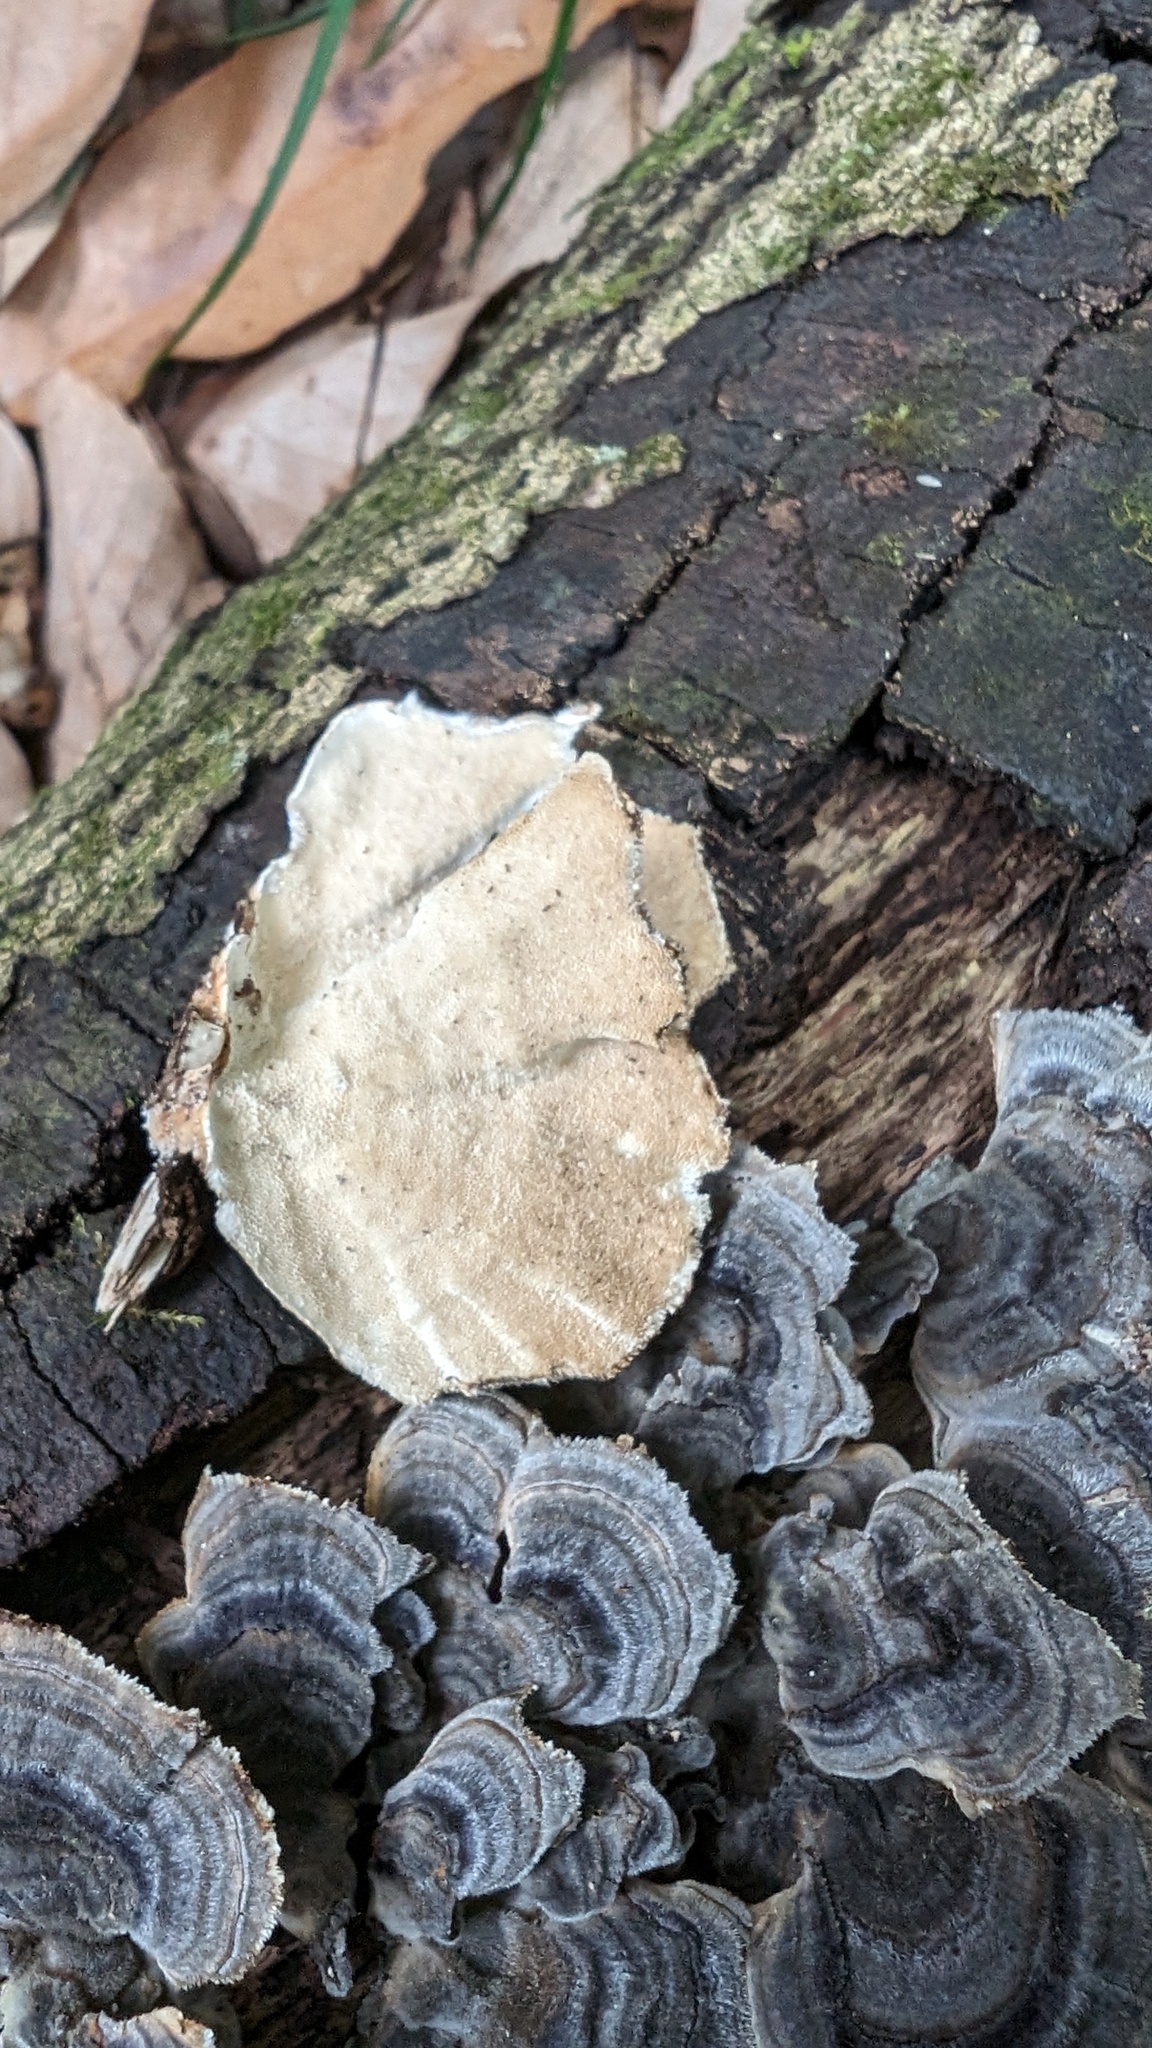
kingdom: Fungi
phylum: Basidiomycota
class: Agaricomycetes
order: Polyporales
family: Polyporaceae
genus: Trametes
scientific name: Trametes versicolor
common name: Turkeytail
